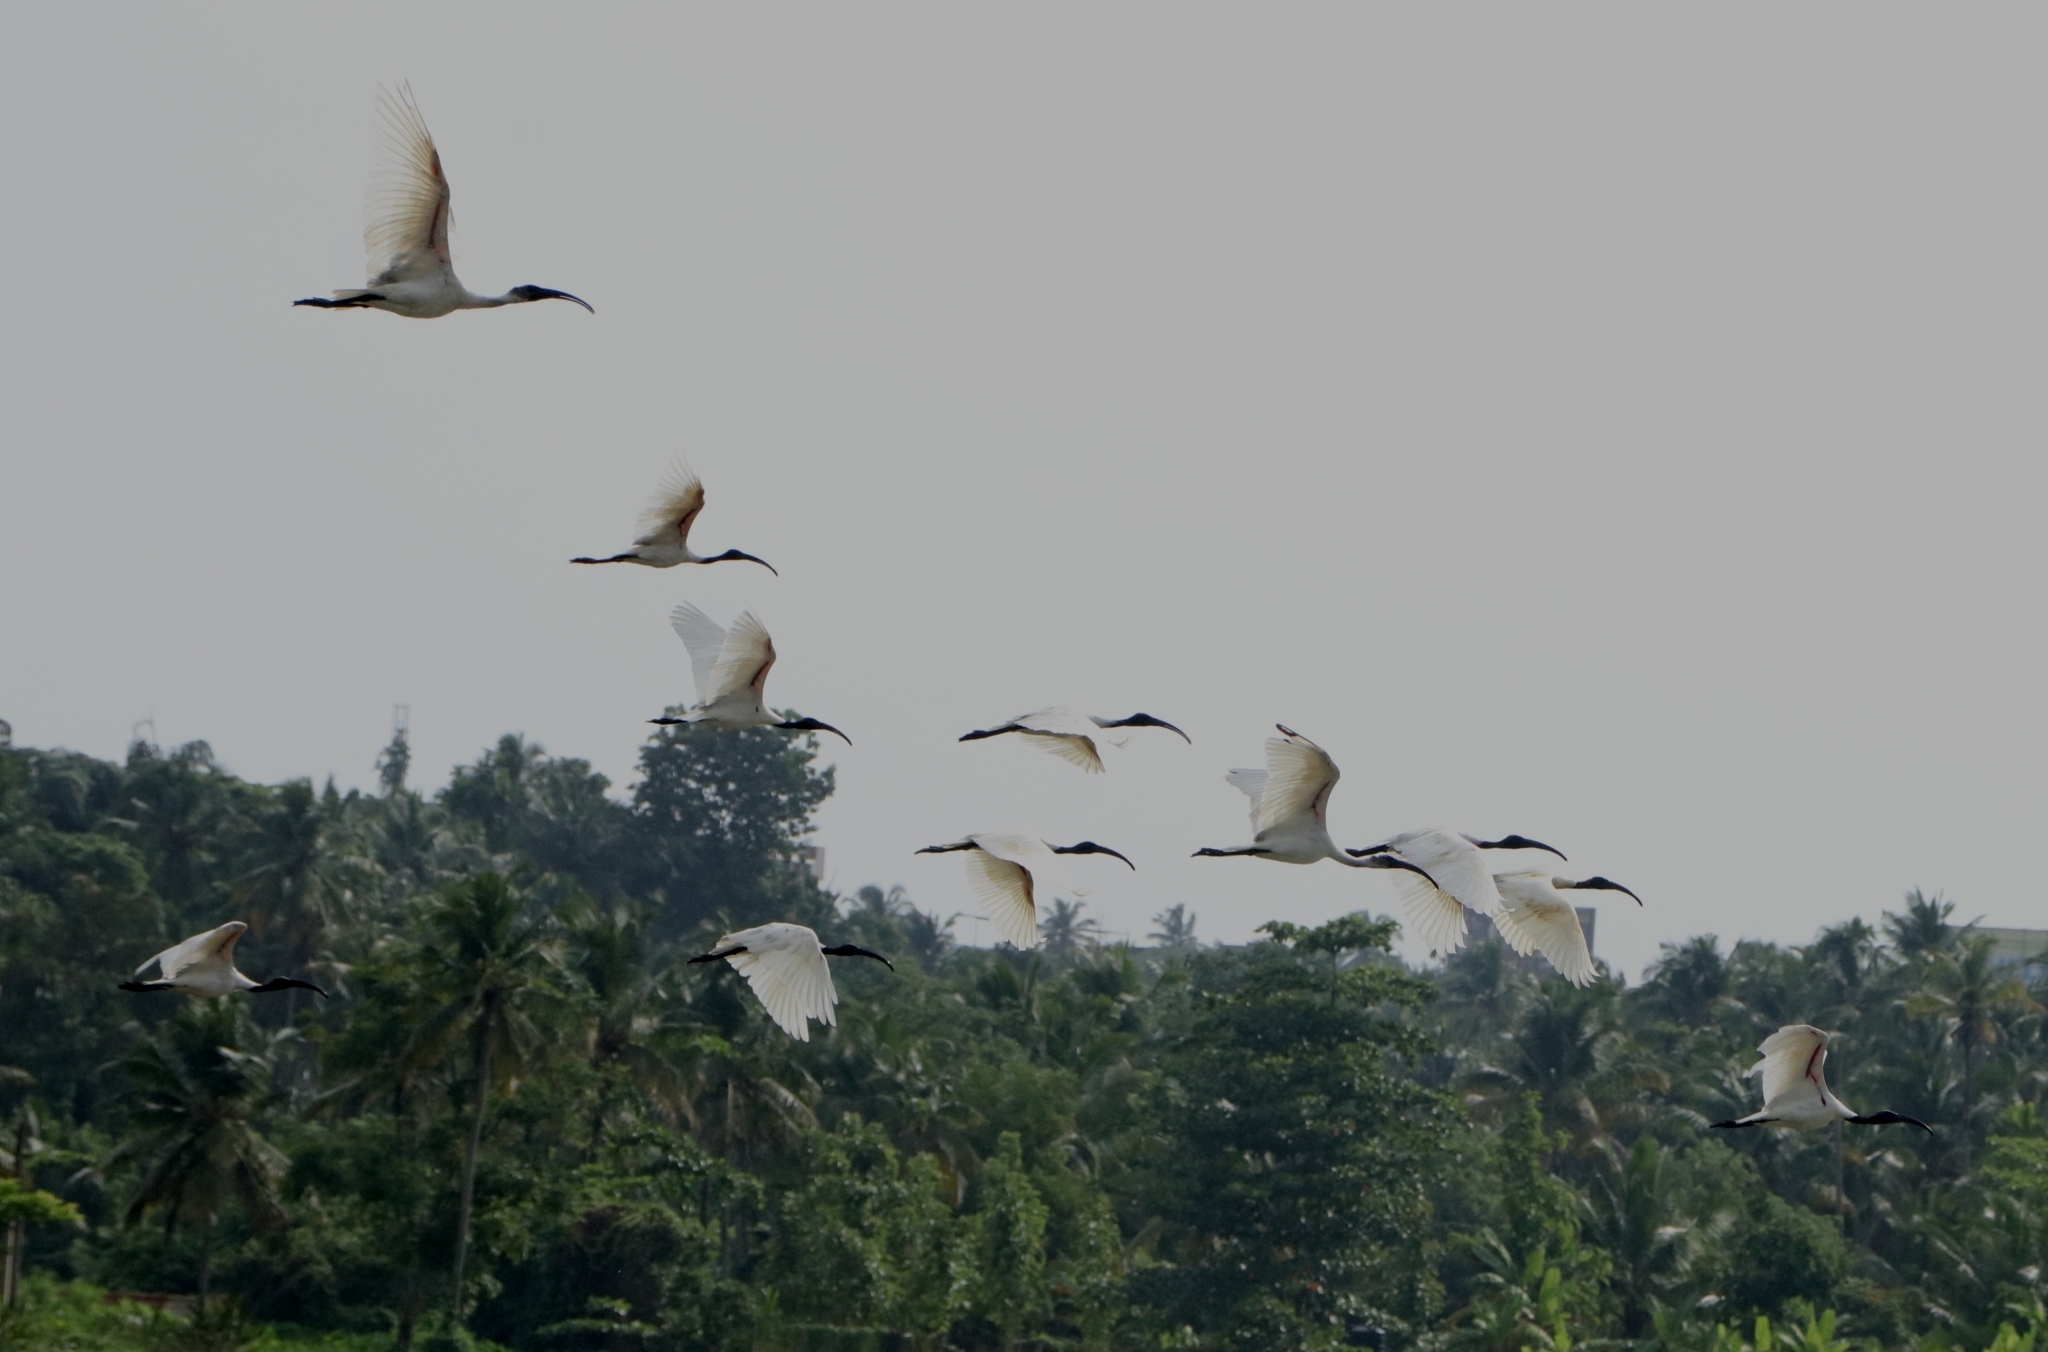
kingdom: Animalia
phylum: Chordata
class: Aves
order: Pelecaniformes
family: Threskiornithidae
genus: Threskiornis
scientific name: Threskiornis melanocephalus
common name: Black-headed ibis
